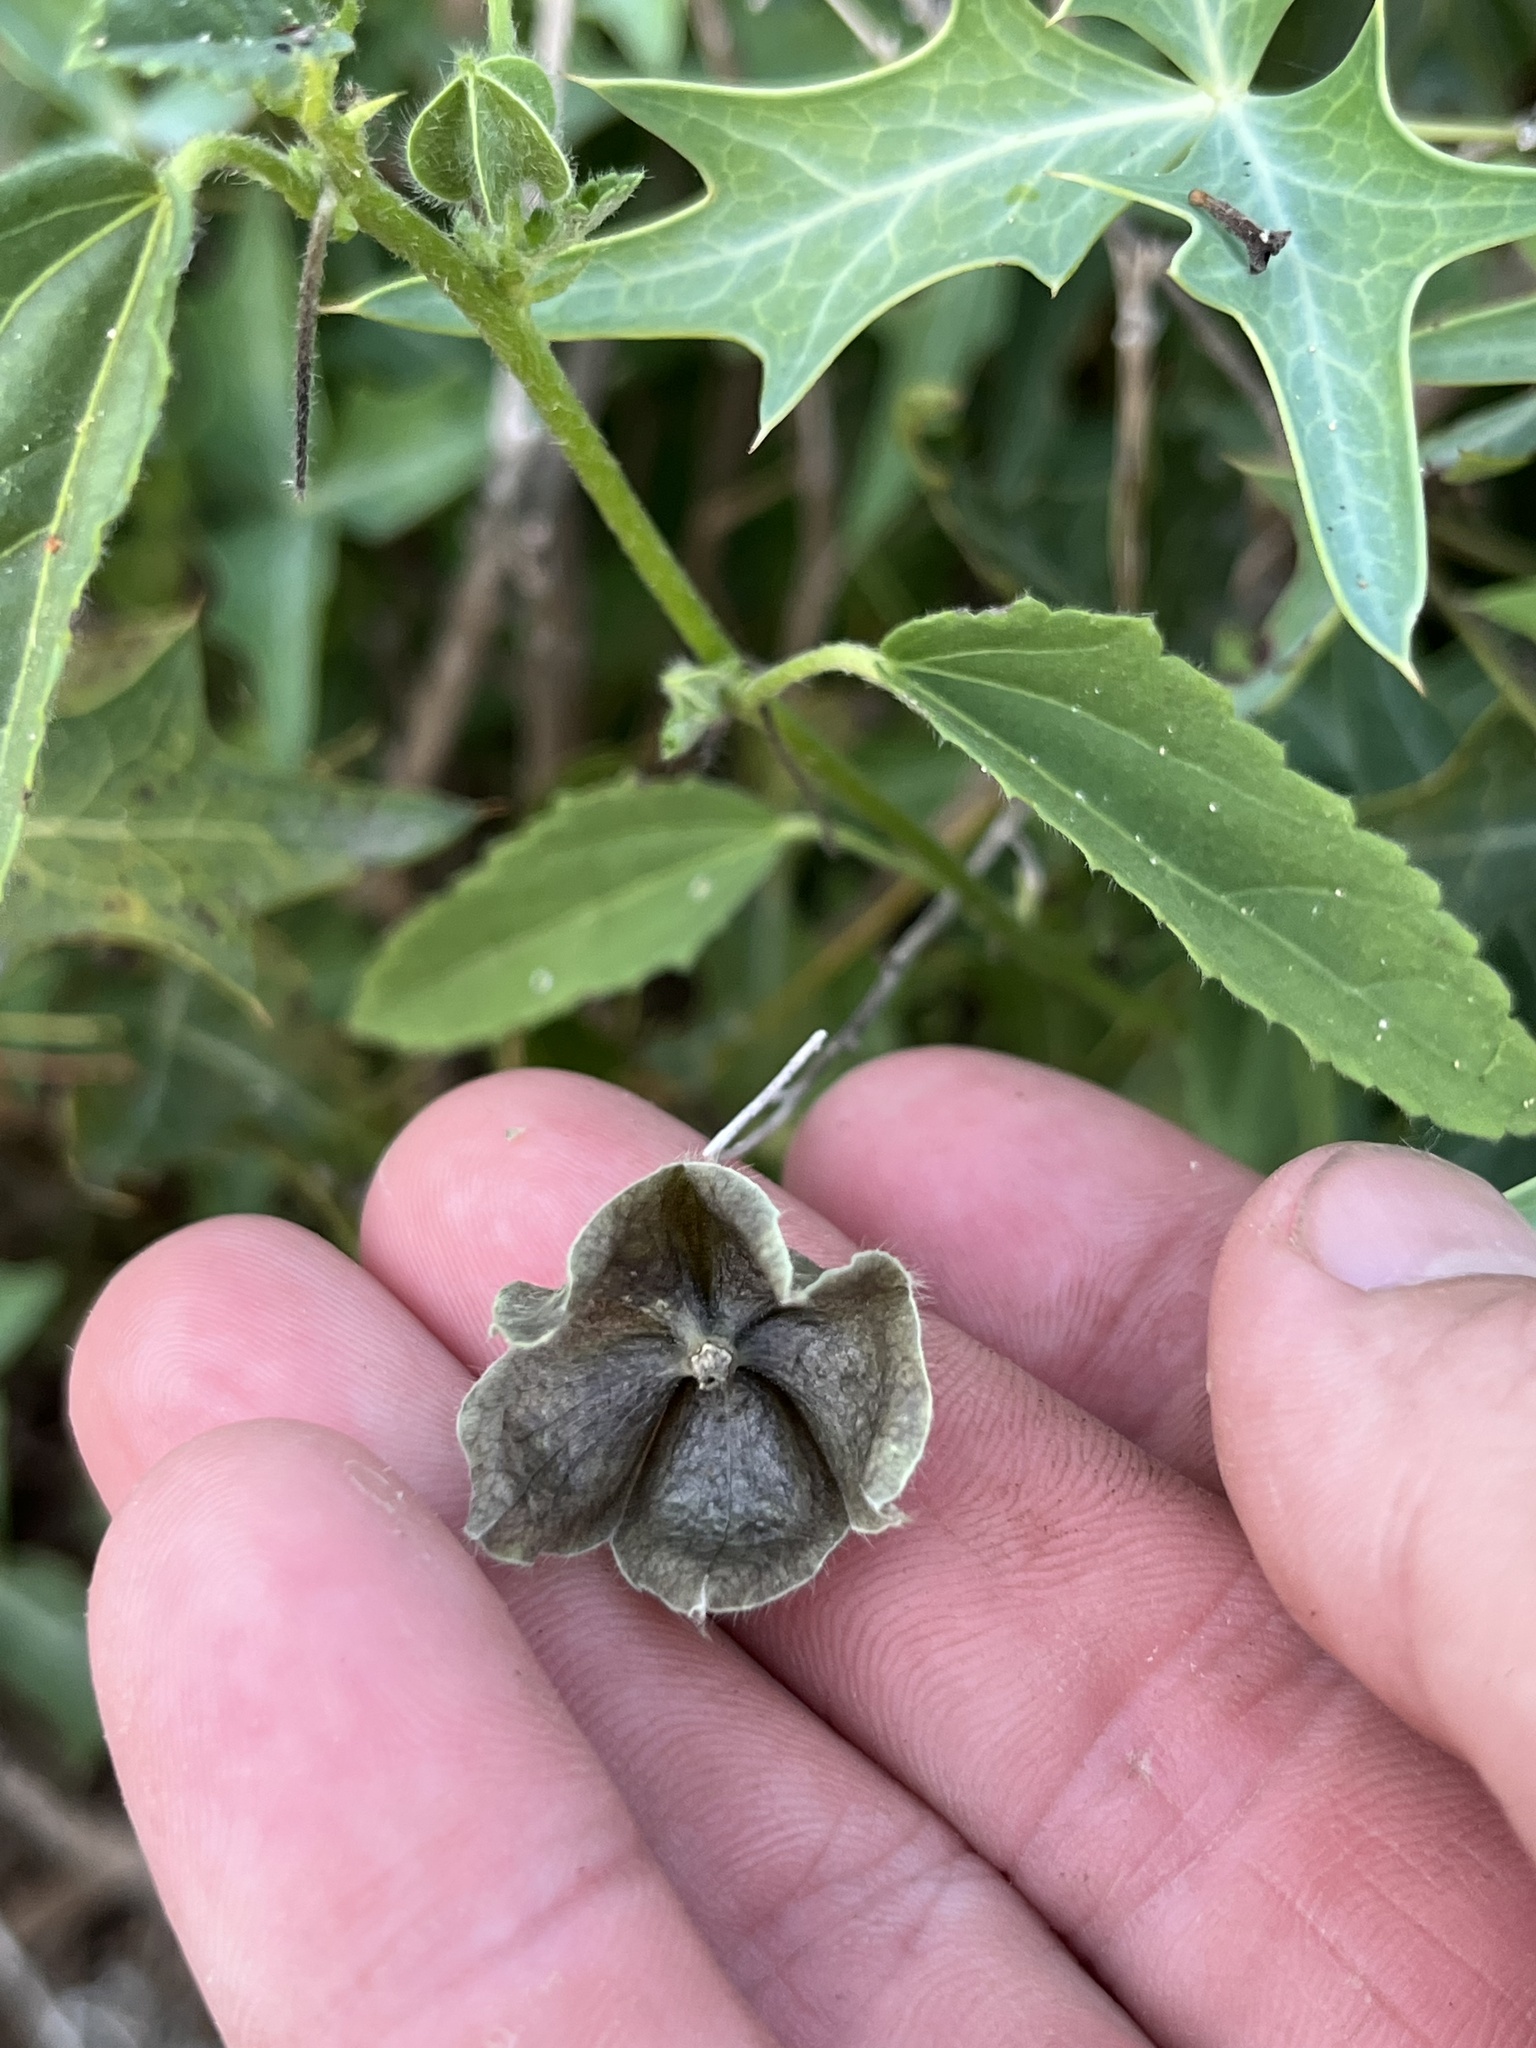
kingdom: Plantae
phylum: Tracheophyta
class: Magnoliopsida
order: Malvales
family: Malvaceae
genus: Rhynchosida
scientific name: Rhynchosida physocalyx
